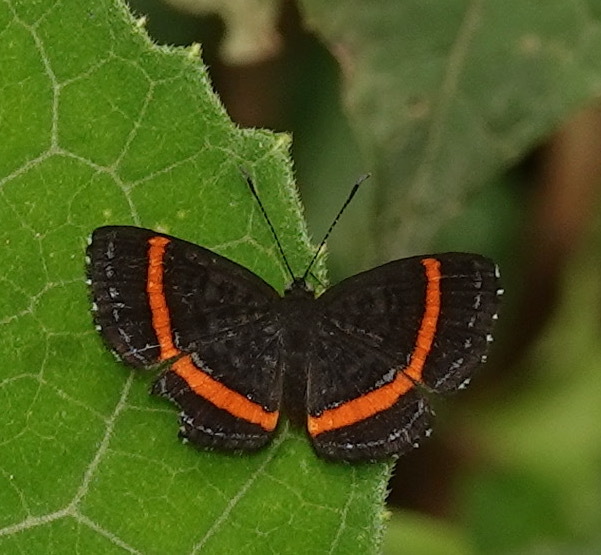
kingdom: Animalia
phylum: Arthropoda
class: Insecta
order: Lepidoptera
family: Riodinidae
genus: Crocozona
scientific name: Crocozona coecias
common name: Orange-banded gem
